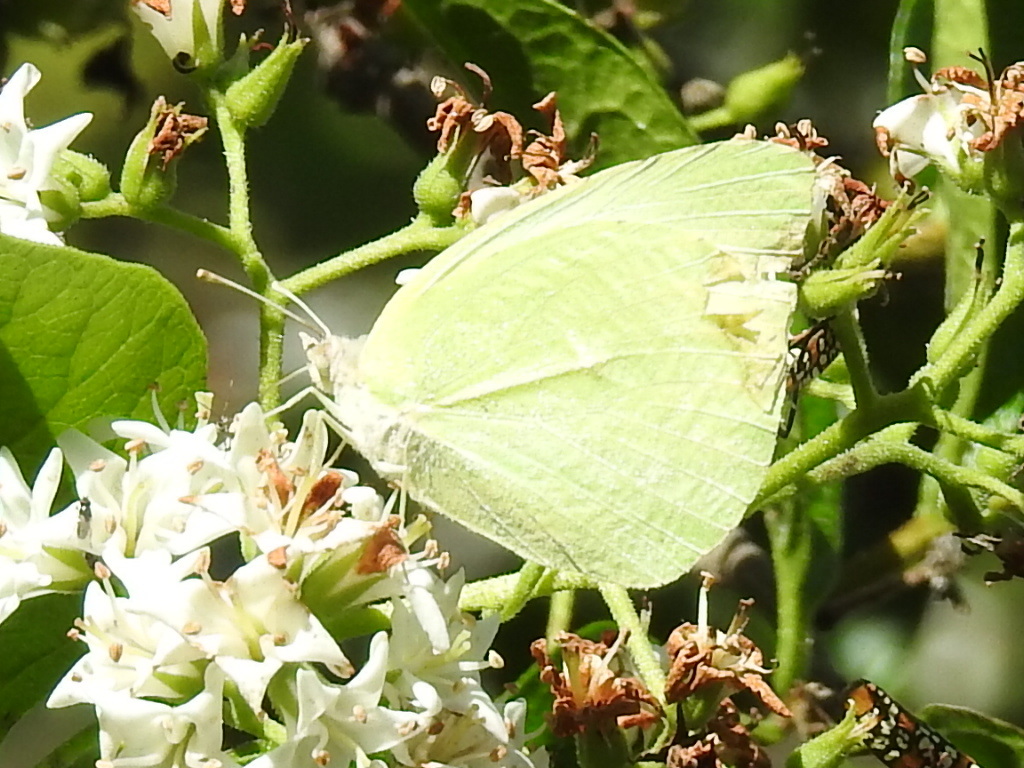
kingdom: Animalia
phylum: Arthropoda
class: Insecta
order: Lepidoptera
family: Pieridae
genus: Kricogonia
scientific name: Kricogonia lyside
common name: Guayacan sulphur,
